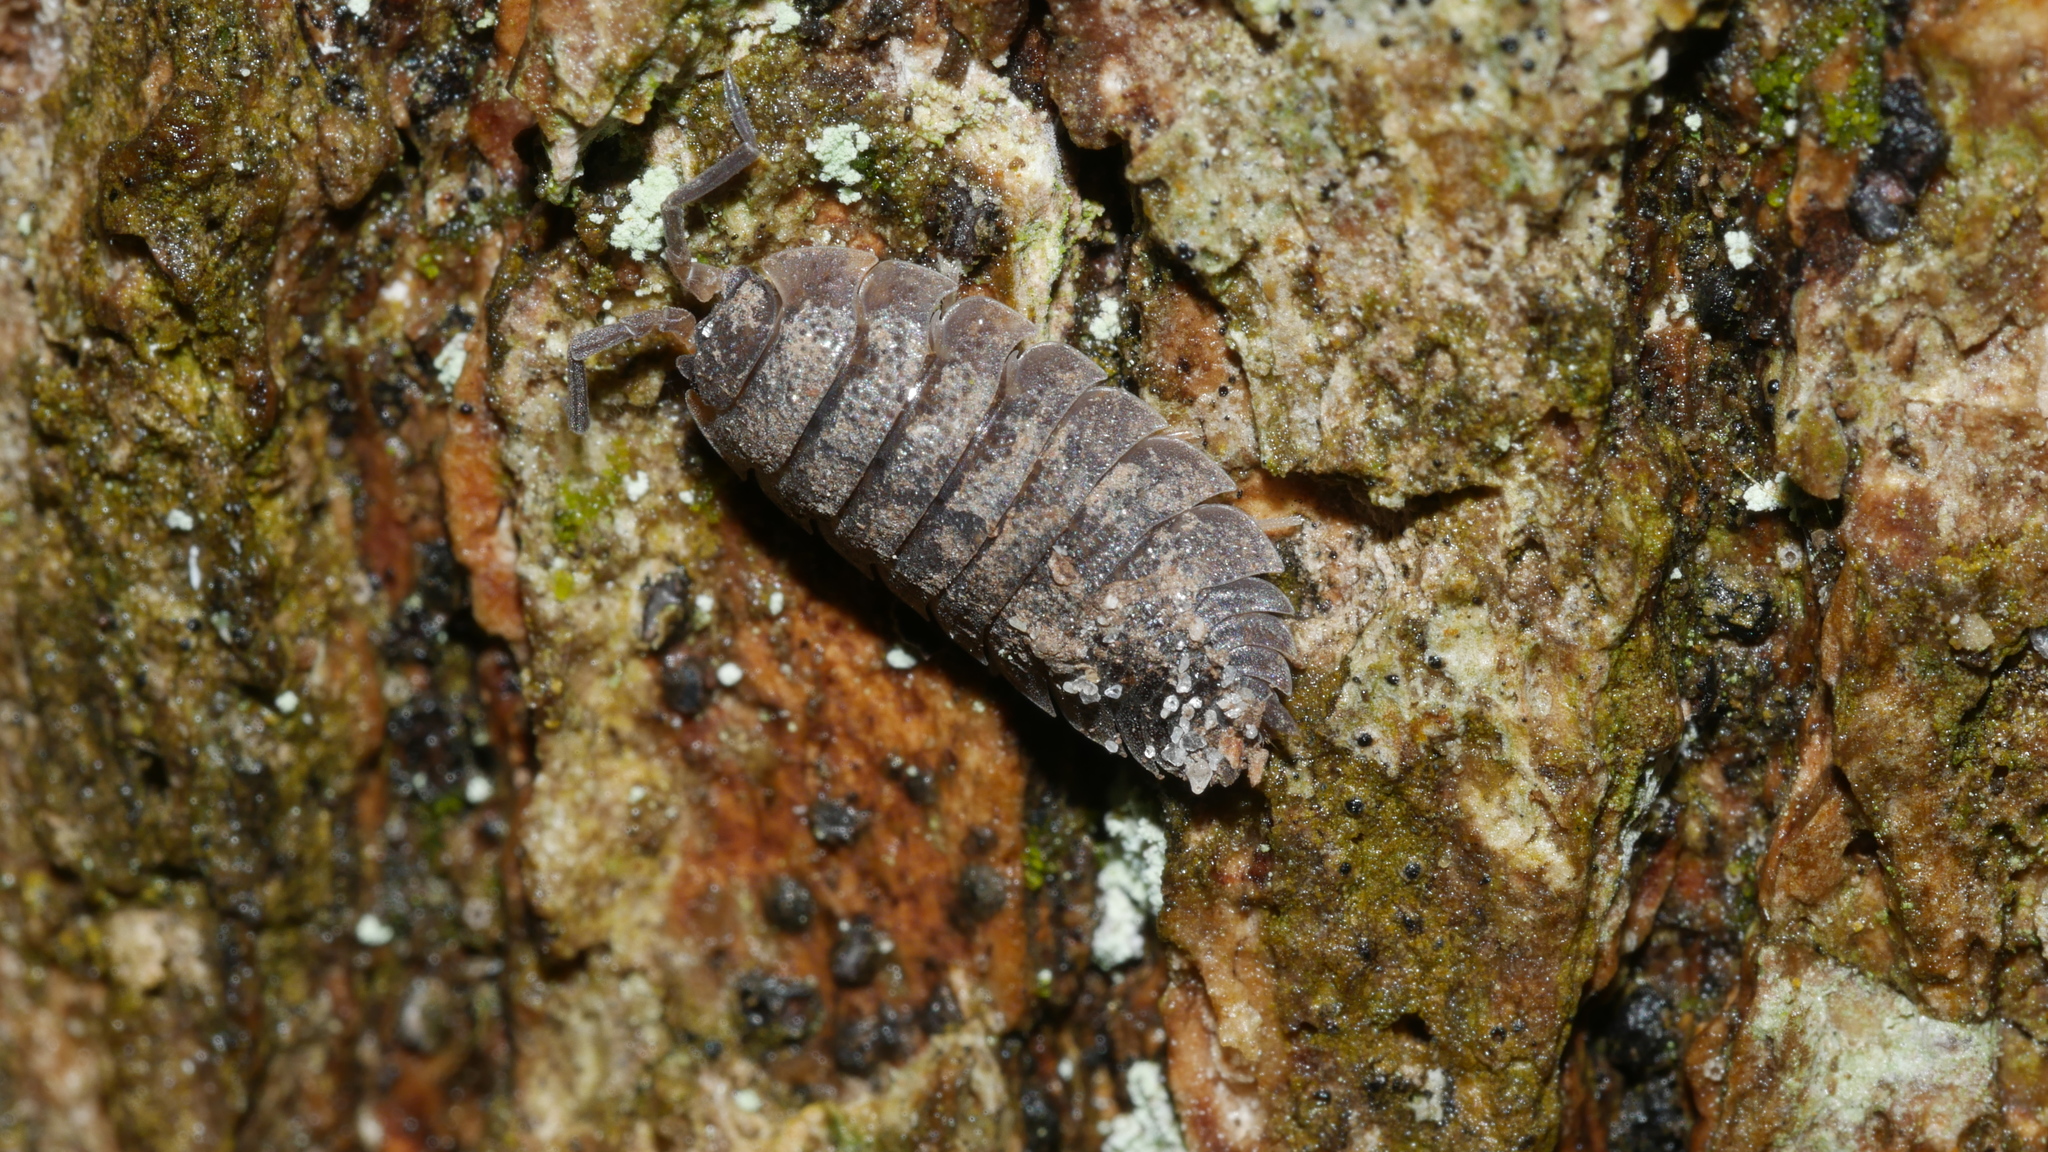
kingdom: Animalia
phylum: Arthropoda
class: Malacostraca
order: Isopoda
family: Porcellionidae
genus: Porcellio
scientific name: Porcellio scaber
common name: Common rough woodlouse
